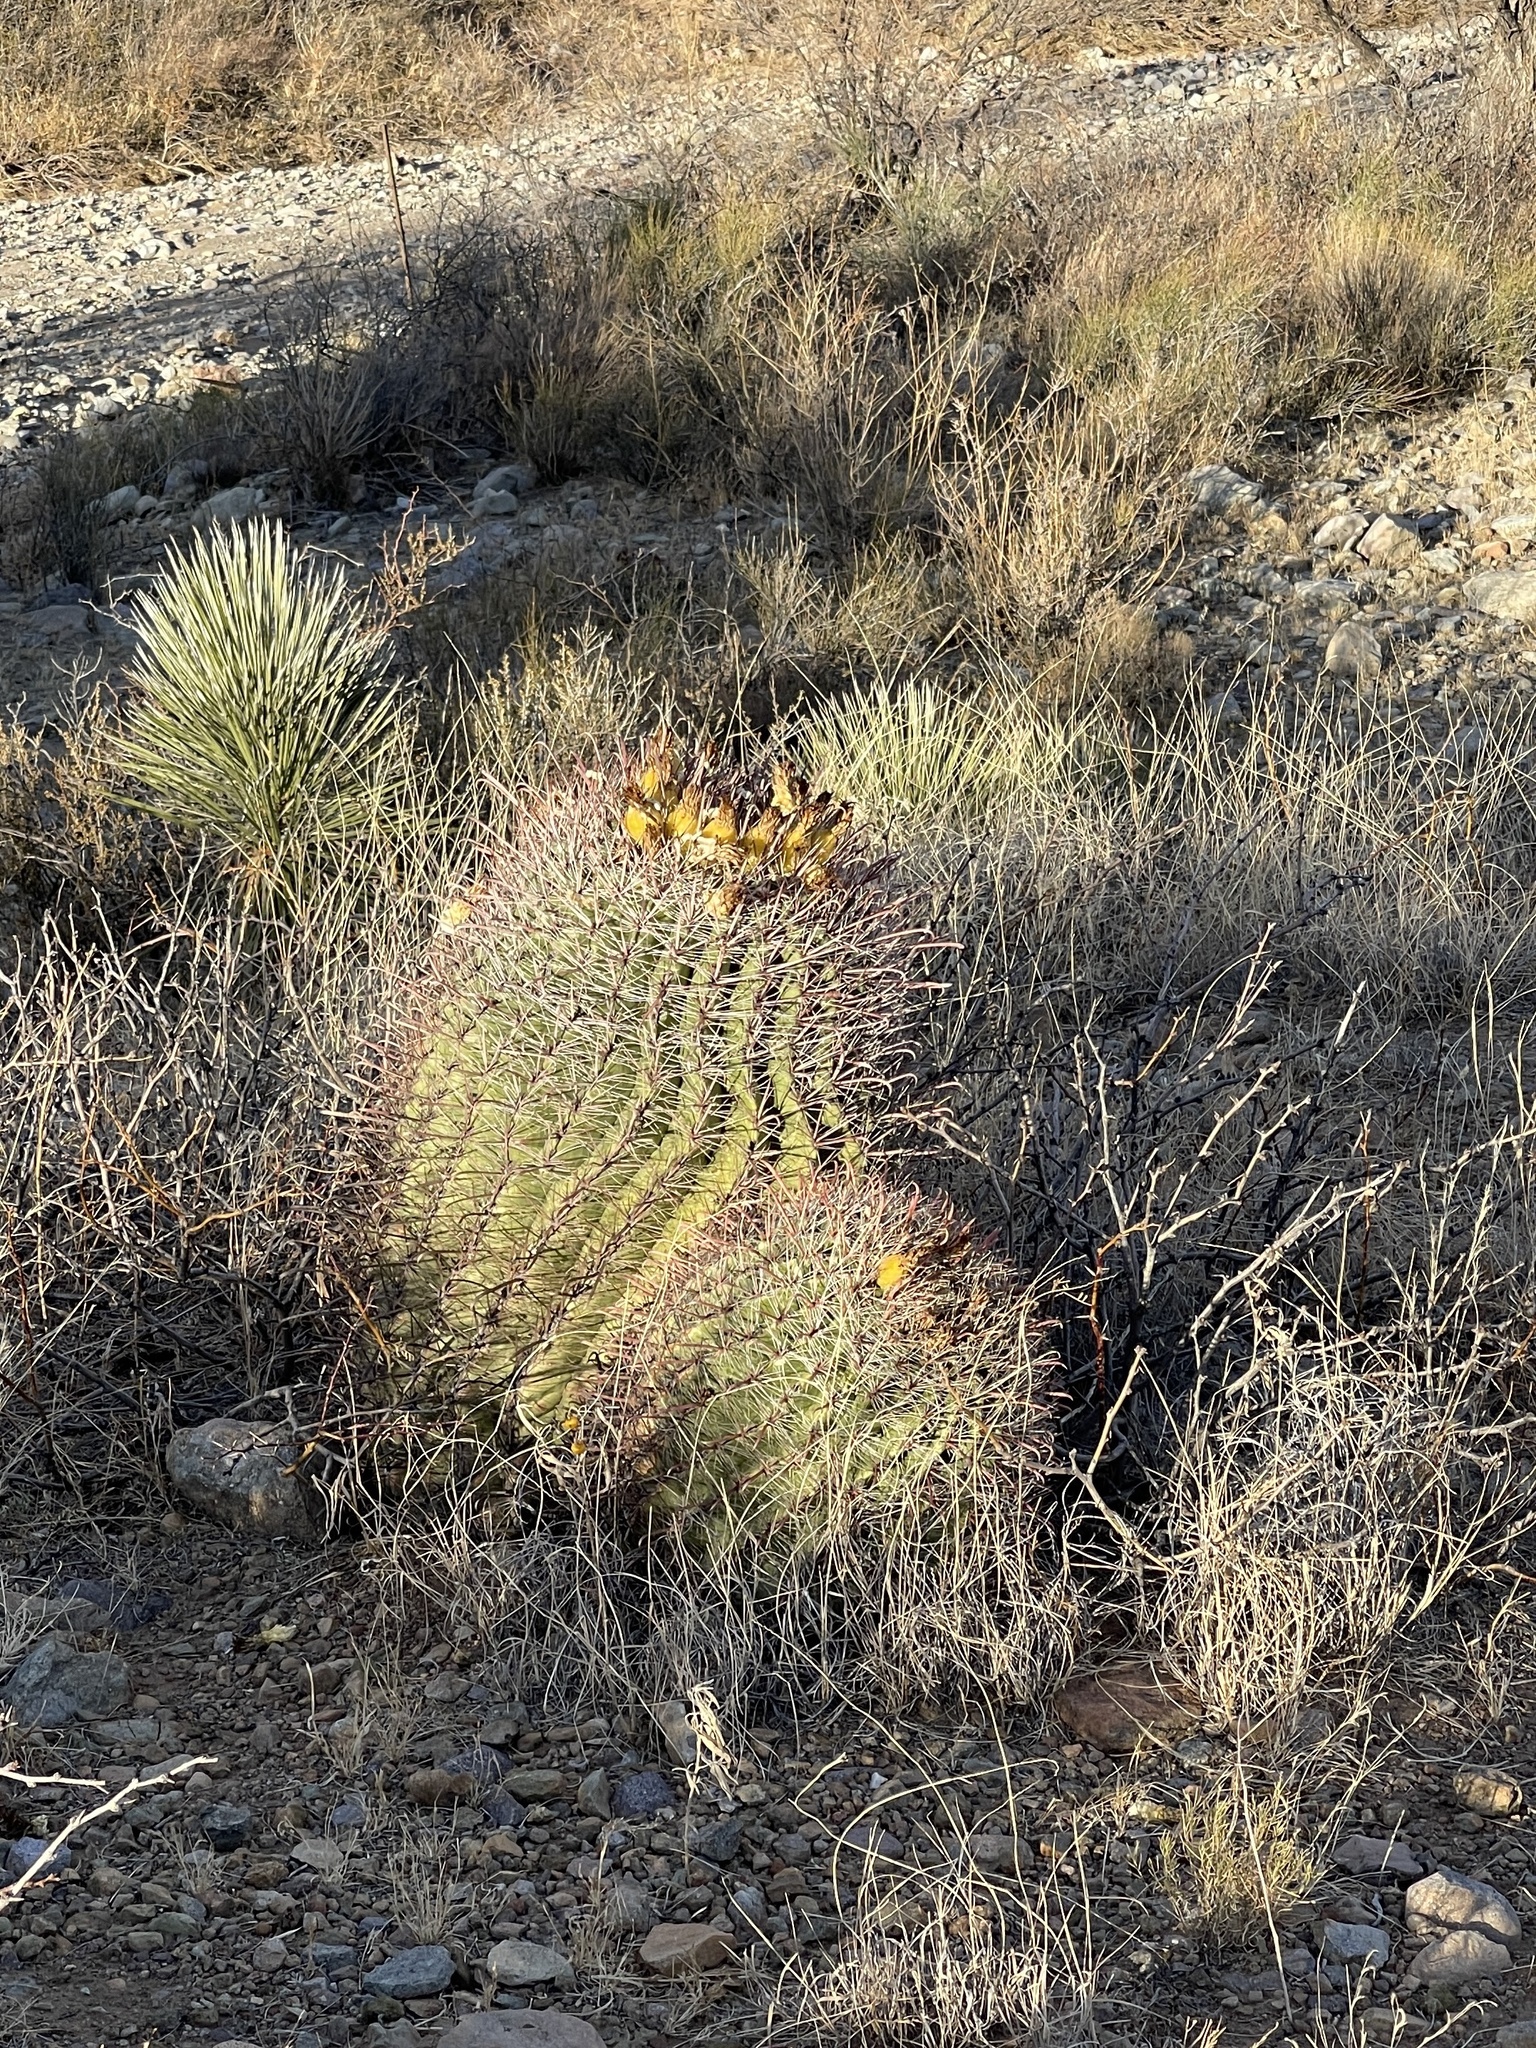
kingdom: Plantae
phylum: Tracheophyta
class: Magnoliopsida
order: Caryophyllales
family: Cactaceae
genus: Ferocactus
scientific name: Ferocactus wislizeni
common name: Candy barrel cactus
